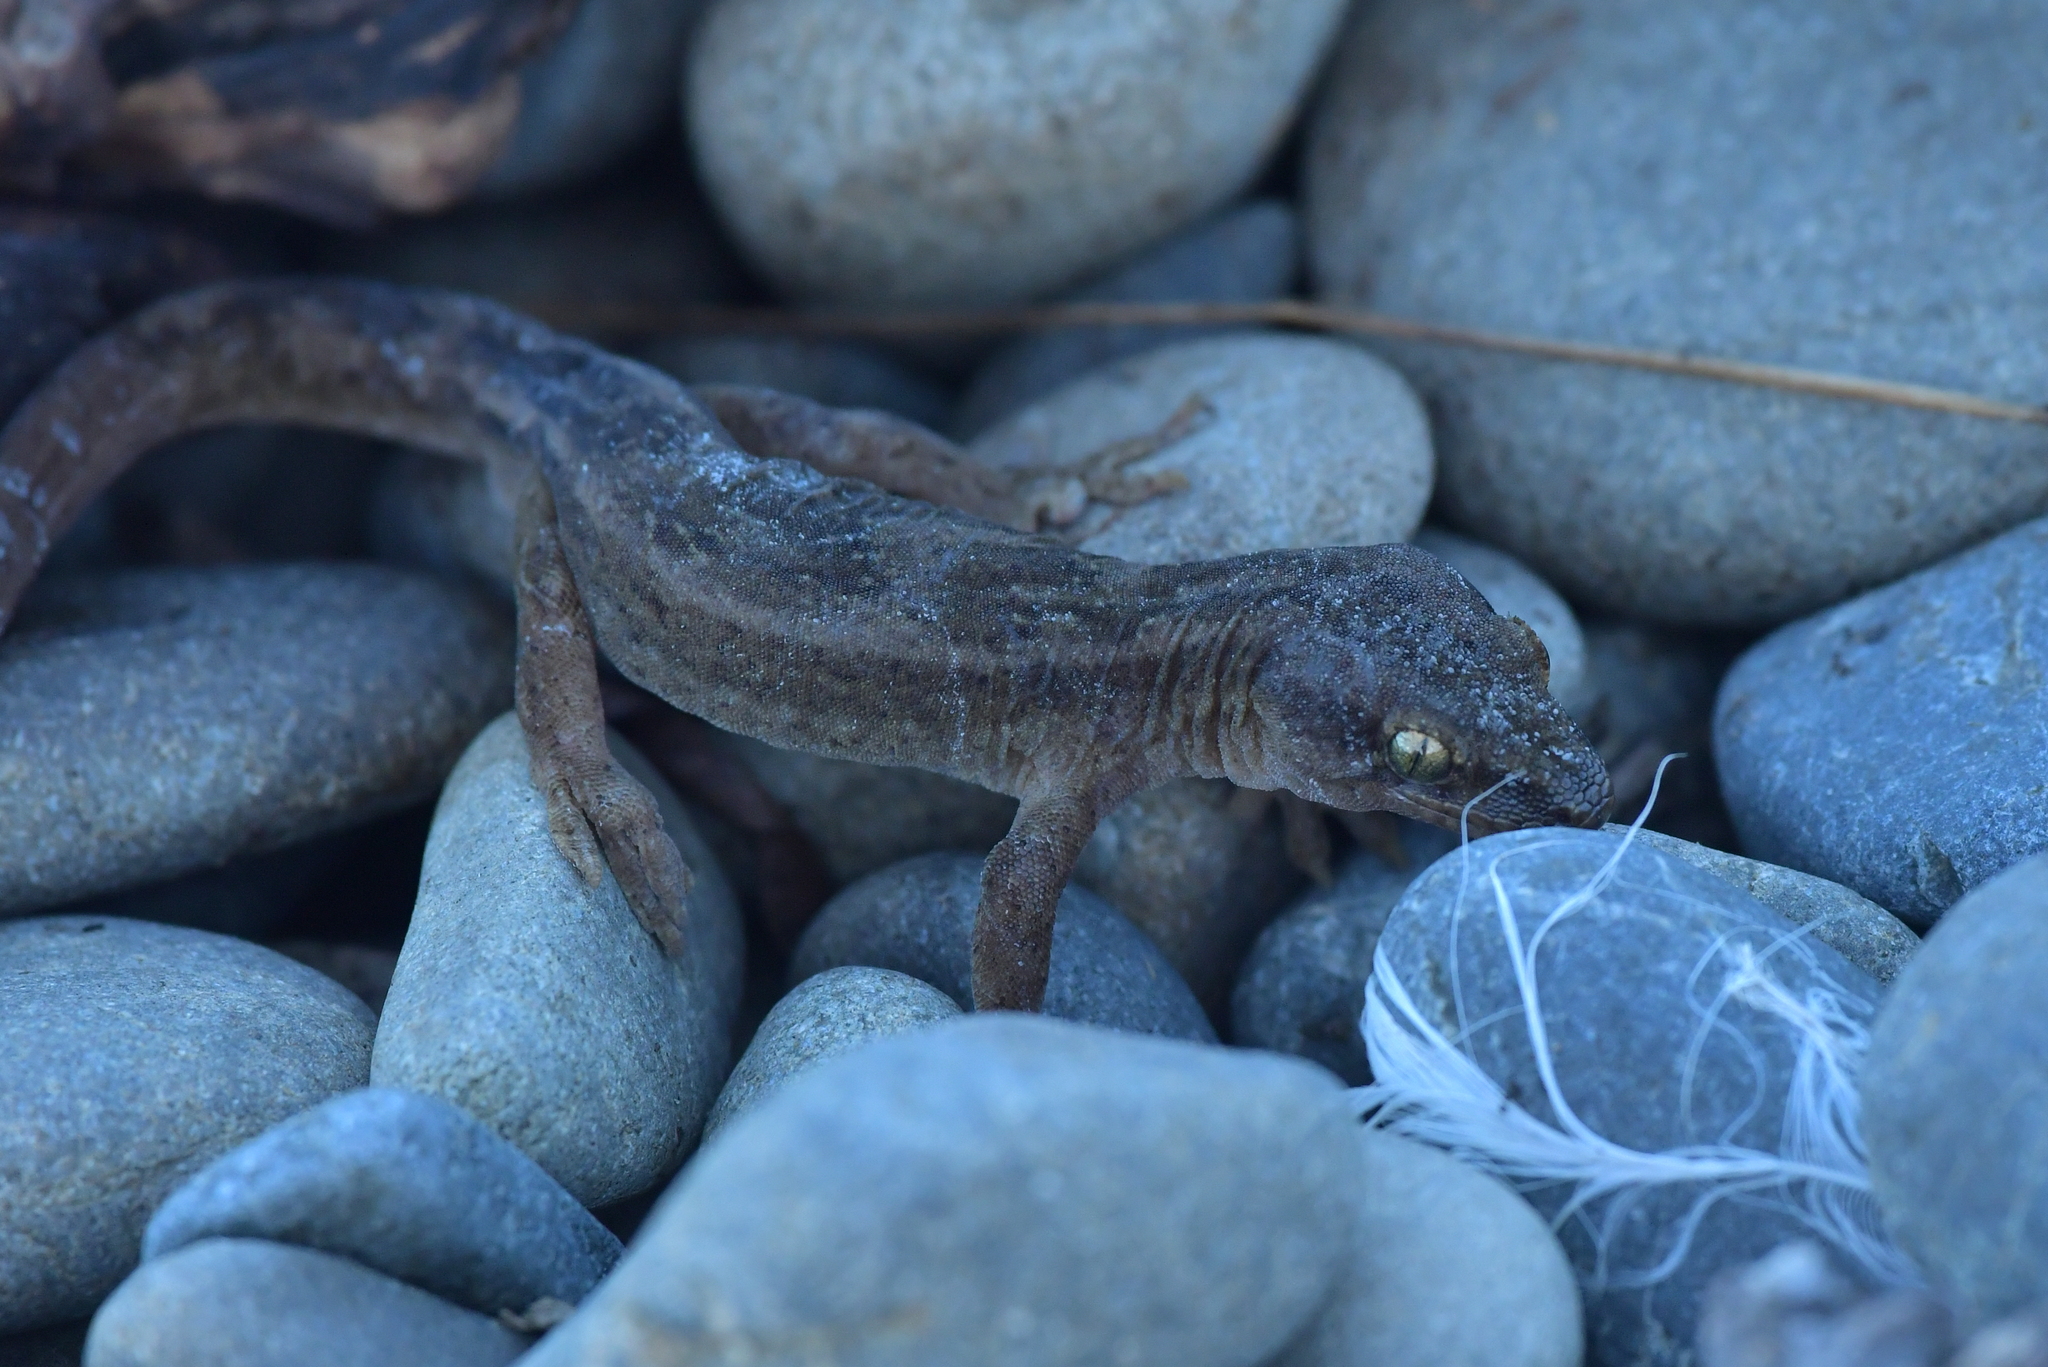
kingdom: Animalia
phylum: Chordata
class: Squamata
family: Diplodactylidae
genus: Woodworthia
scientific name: Woodworthia maculata
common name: Raukawa gecko
